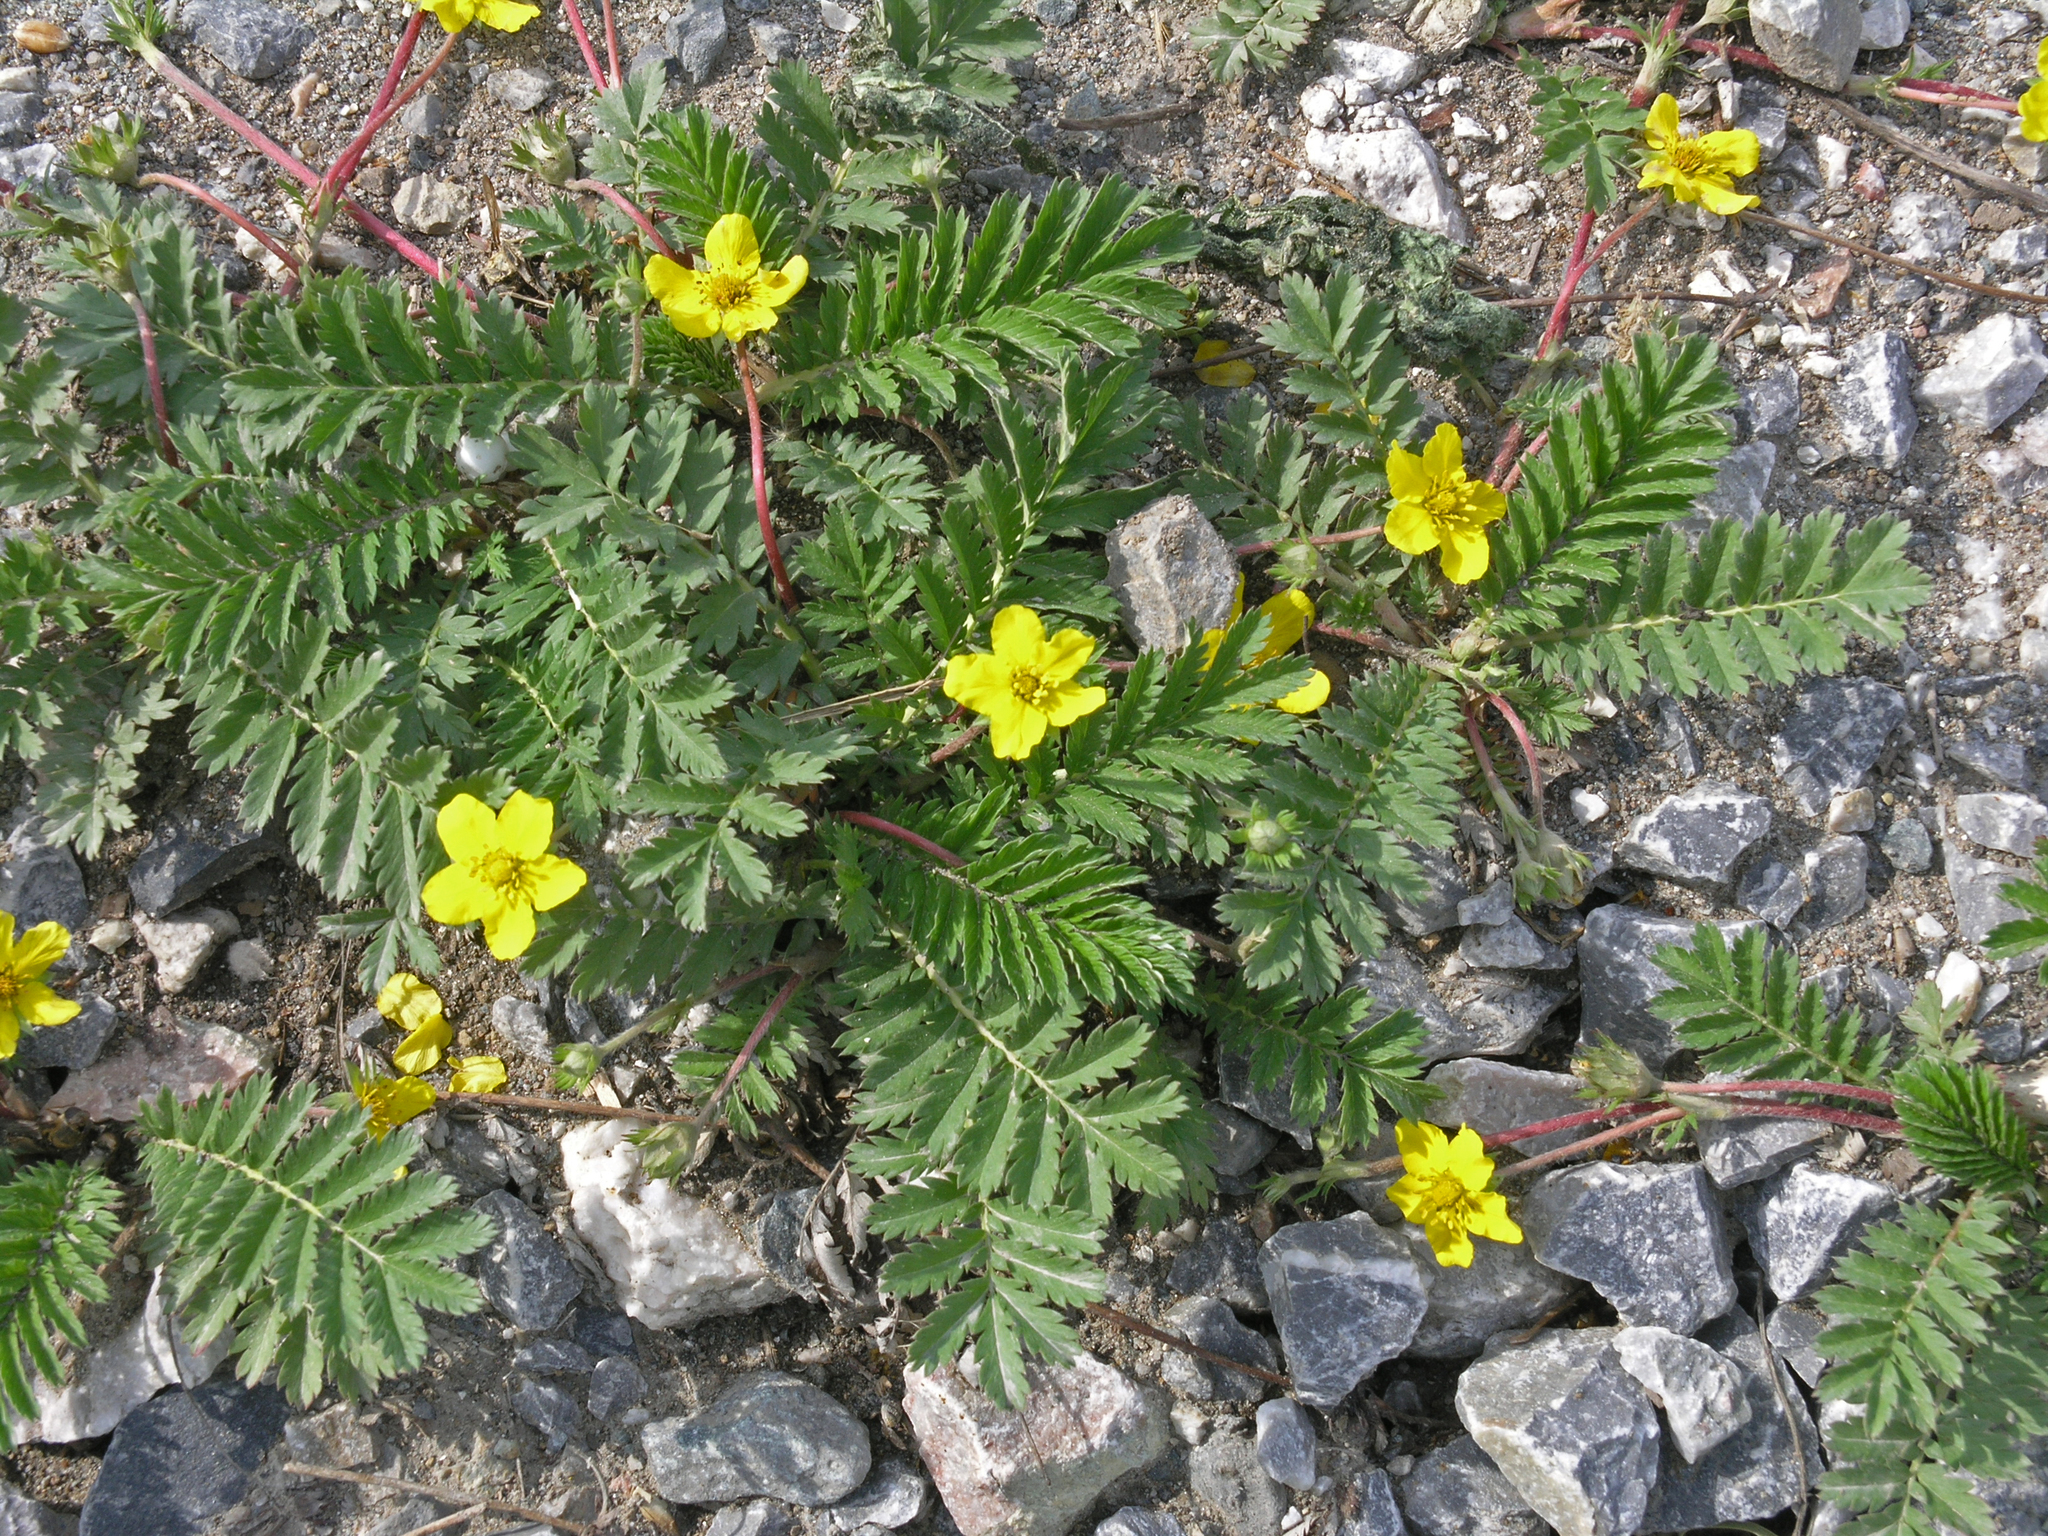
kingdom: Plantae
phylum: Tracheophyta
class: Magnoliopsida
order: Rosales
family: Rosaceae
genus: Argentina
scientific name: Argentina anserina
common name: Common silverweed
